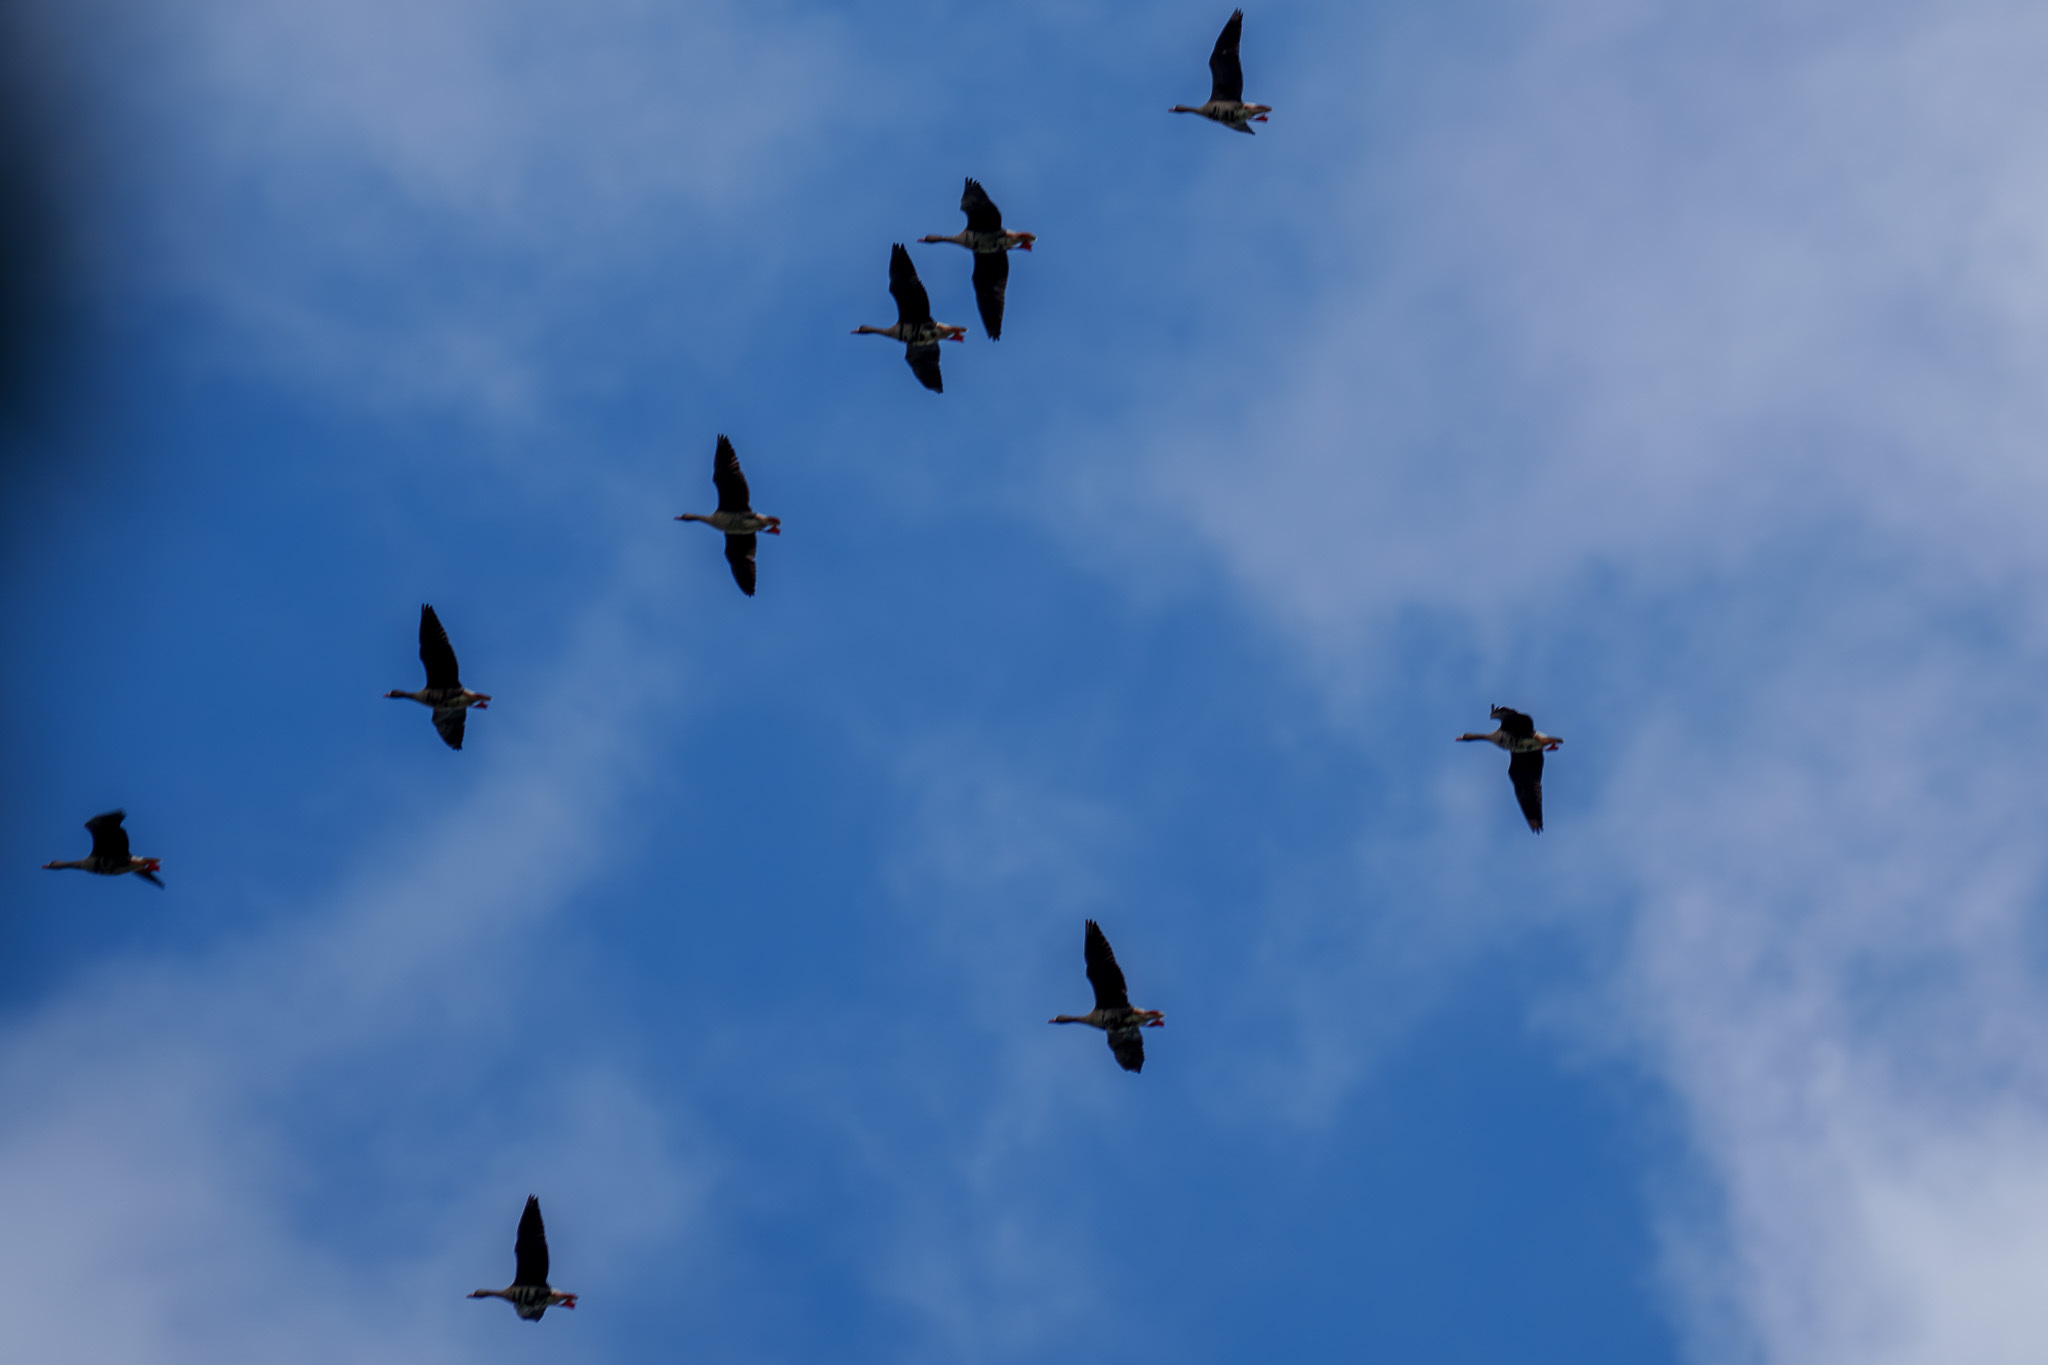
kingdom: Animalia
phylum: Chordata
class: Aves
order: Anseriformes
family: Anatidae
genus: Anser
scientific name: Anser albifrons
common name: Greater white-fronted goose
